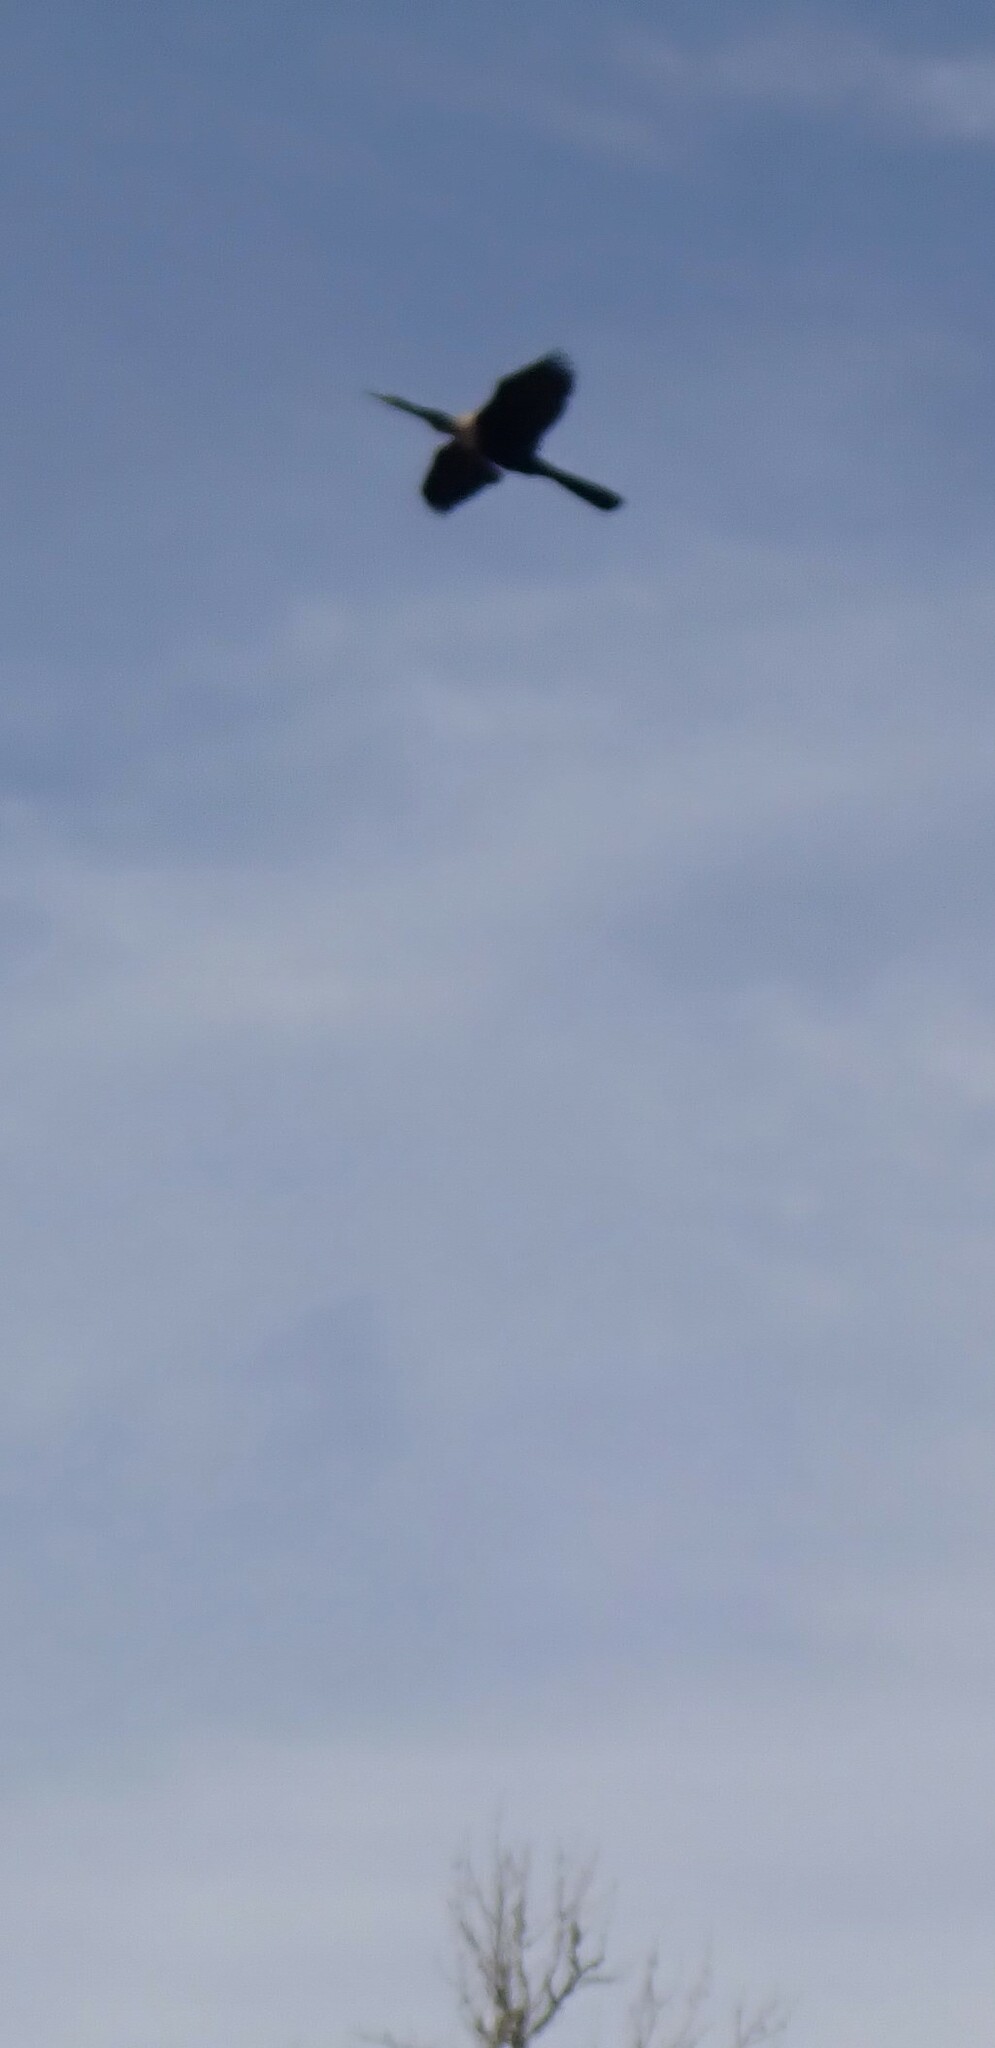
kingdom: Animalia
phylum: Chordata
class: Aves
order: Suliformes
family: Anhingidae
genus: Anhinga
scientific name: Anhinga anhinga
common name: Anhinga
